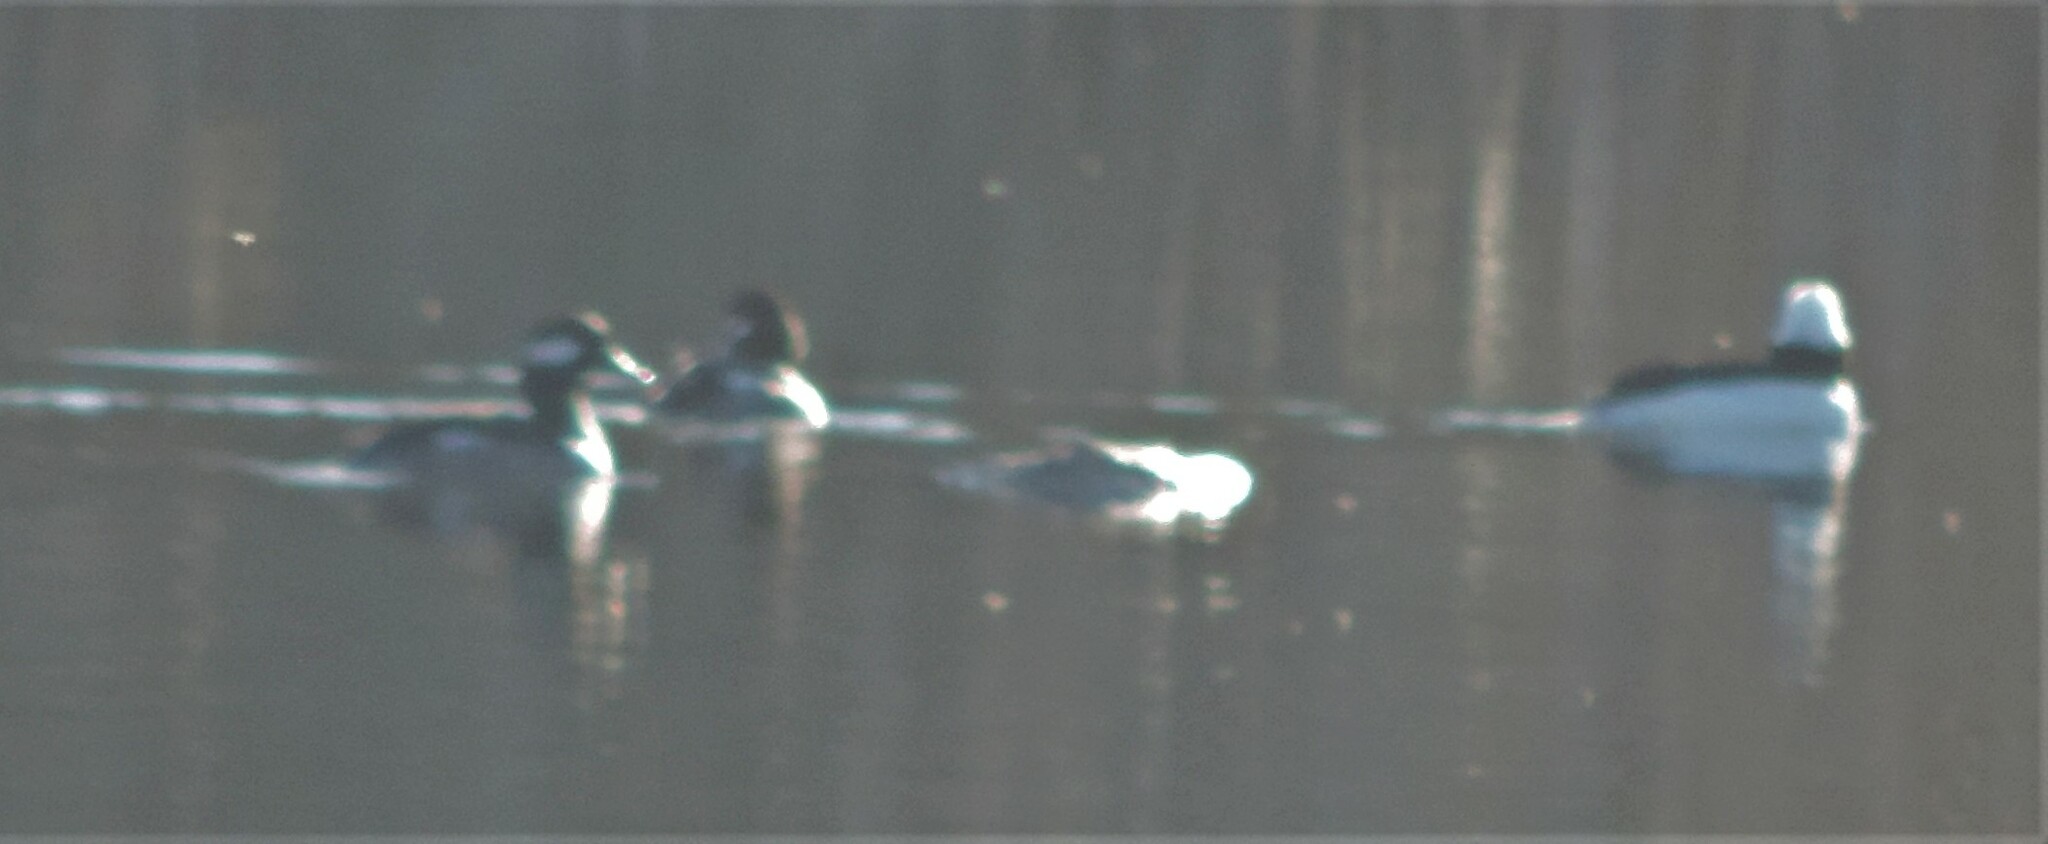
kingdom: Animalia
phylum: Chordata
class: Aves
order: Anseriformes
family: Anatidae
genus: Bucephala
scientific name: Bucephala albeola
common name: Bufflehead
